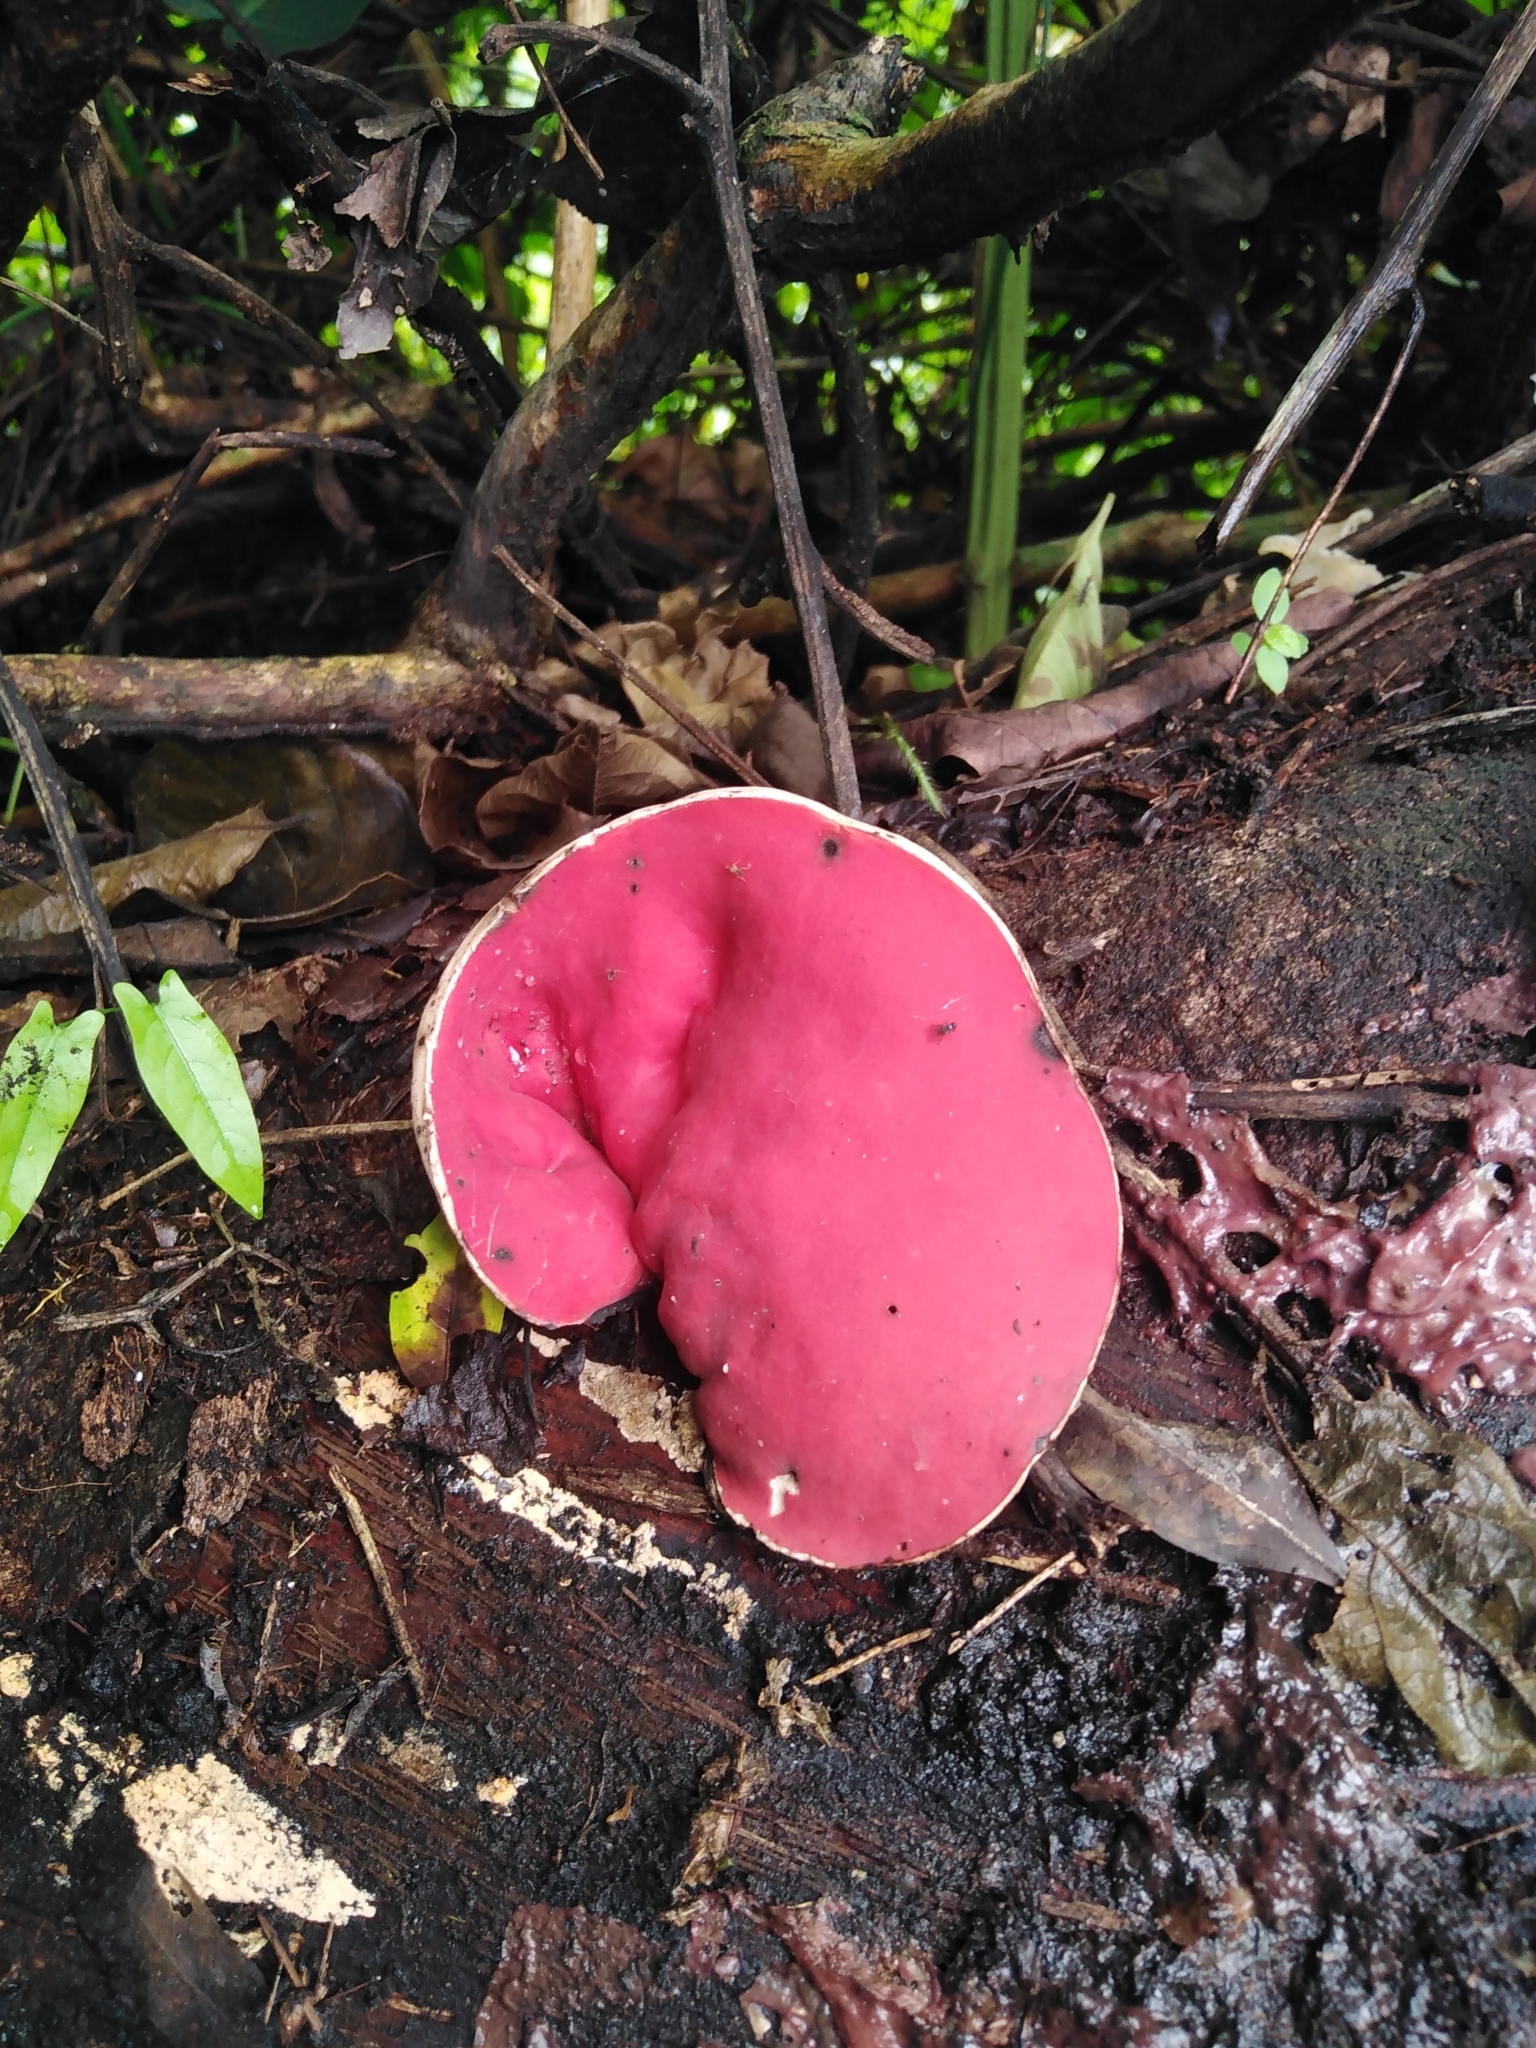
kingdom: Fungi
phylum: Ascomycota
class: Pezizomycetes
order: Pezizales
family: Sarcoscyphaceae
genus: Phillipsia
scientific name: Phillipsia domingensis
